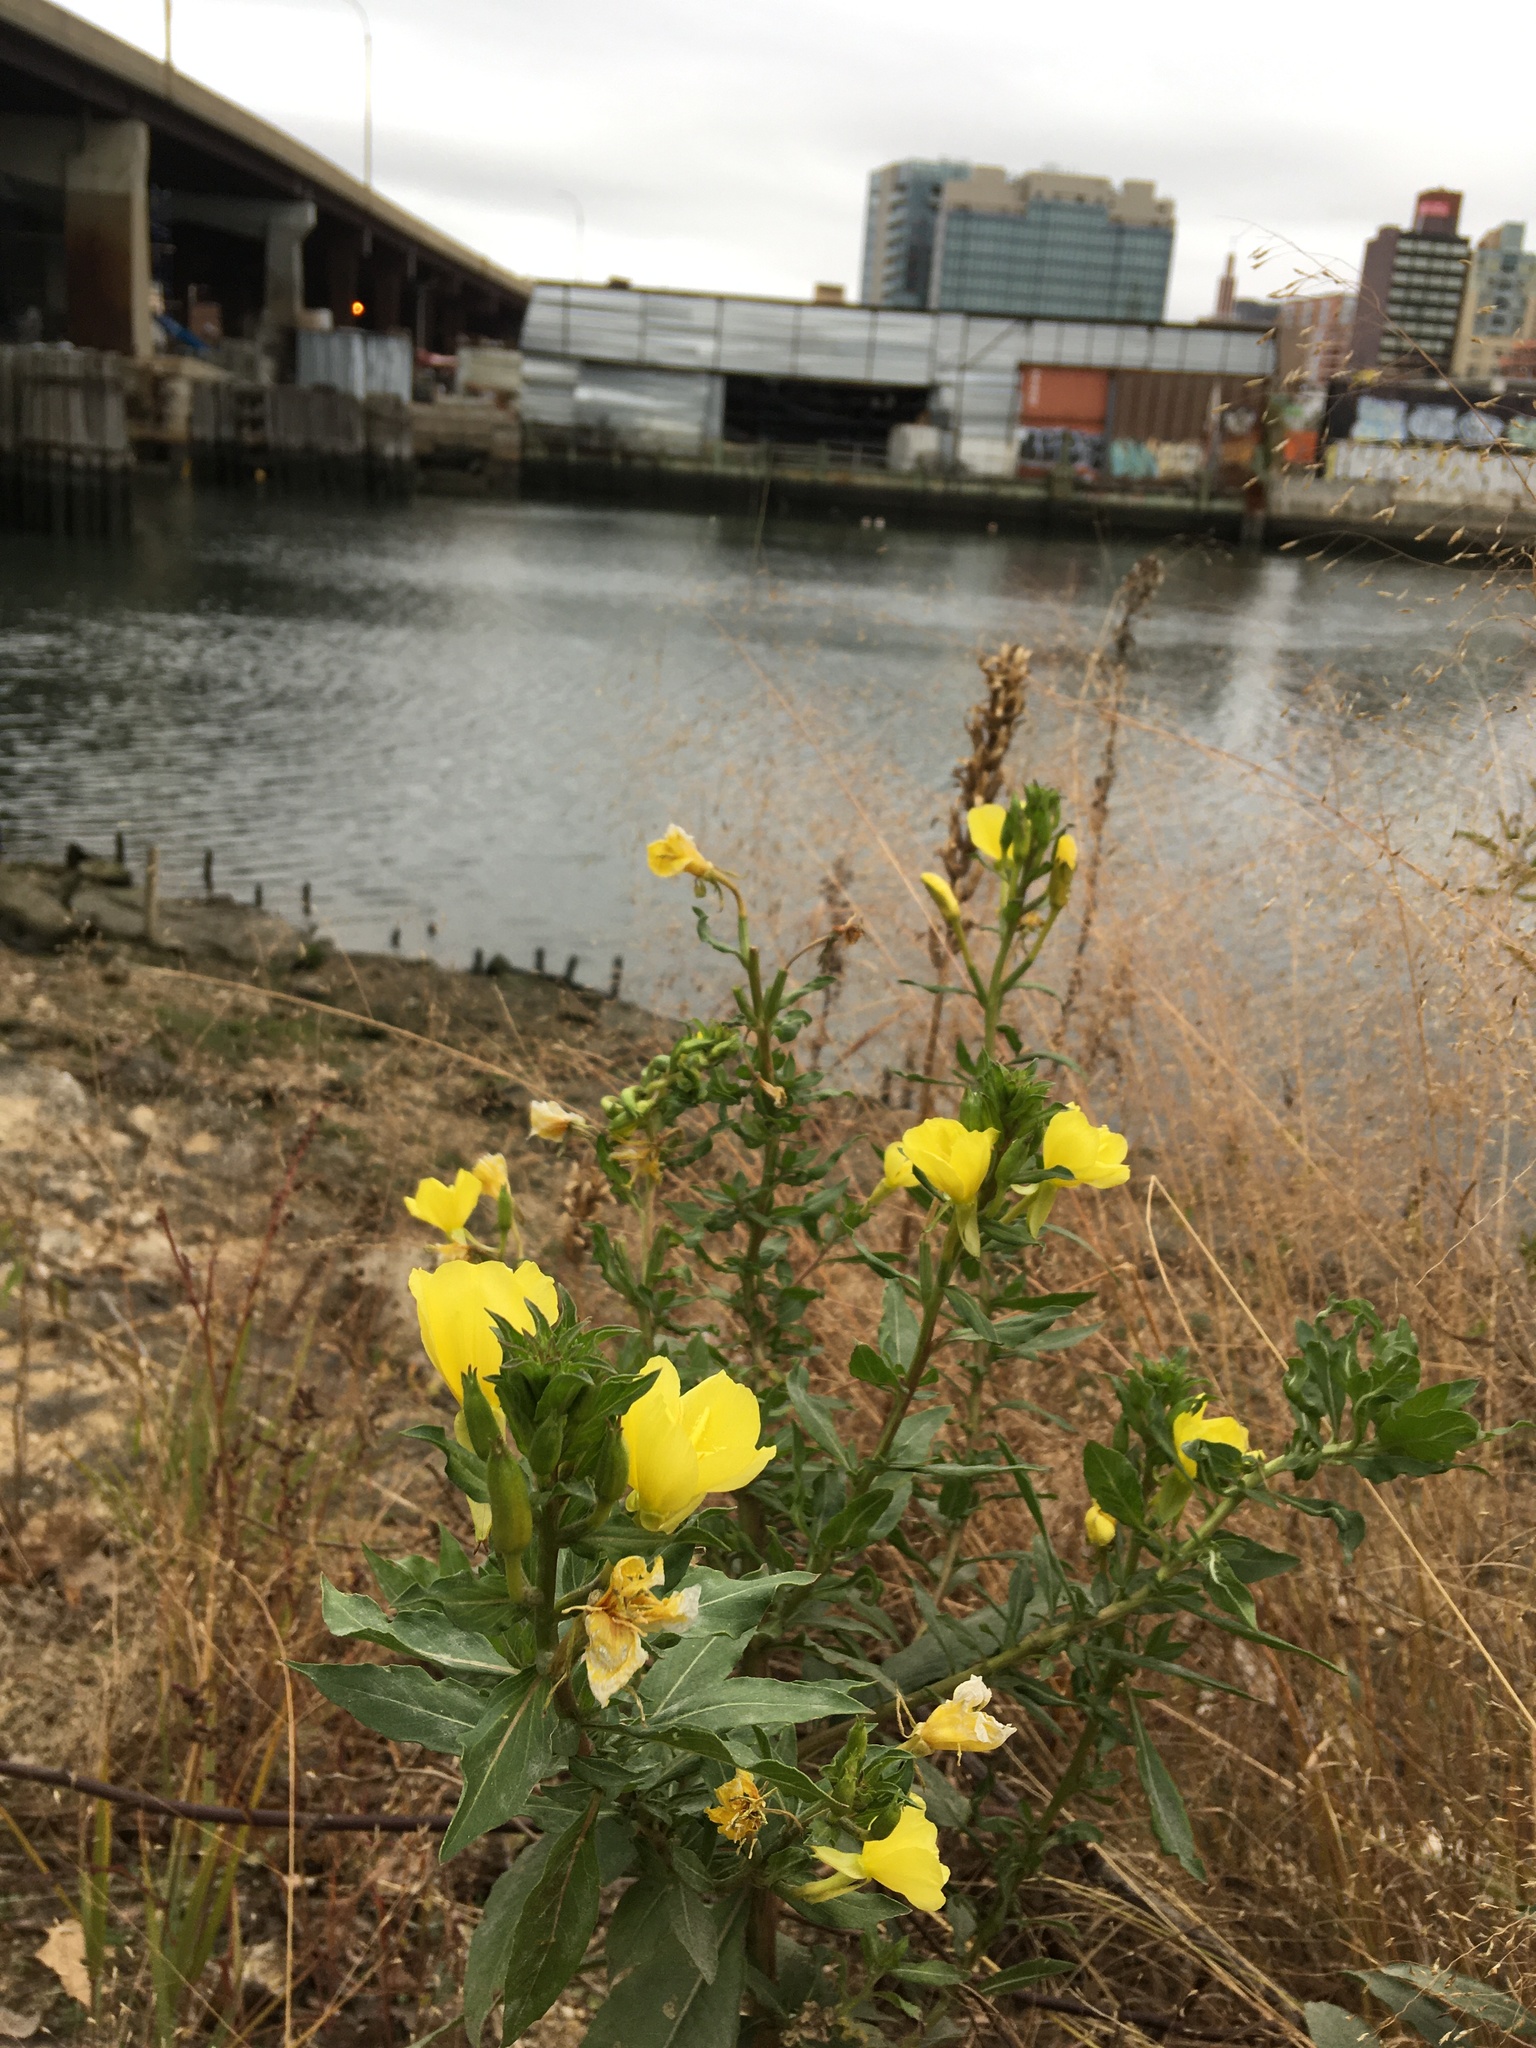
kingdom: Plantae
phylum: Tracheophyta
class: Magnoliopsida
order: Myrtales
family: Onagraceae
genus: Oenothera
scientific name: Oenothera biennis
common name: Common evening-primrose
